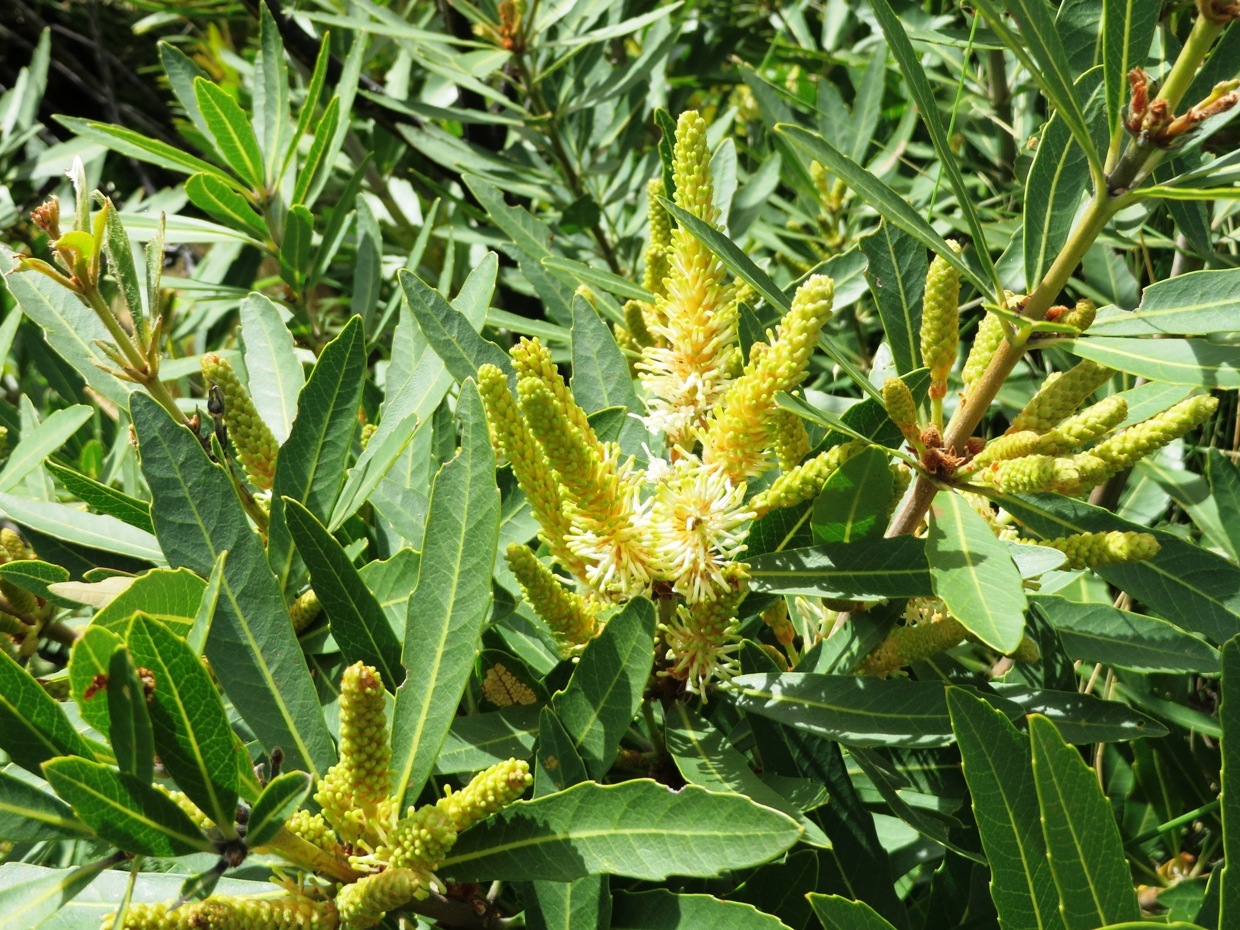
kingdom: Plantae
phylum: Tracheophyta
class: Magnoliopsida
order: Proteales
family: Proteaceae
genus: Brabejum
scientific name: Brabejum stellatifolium
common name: Wild almond
